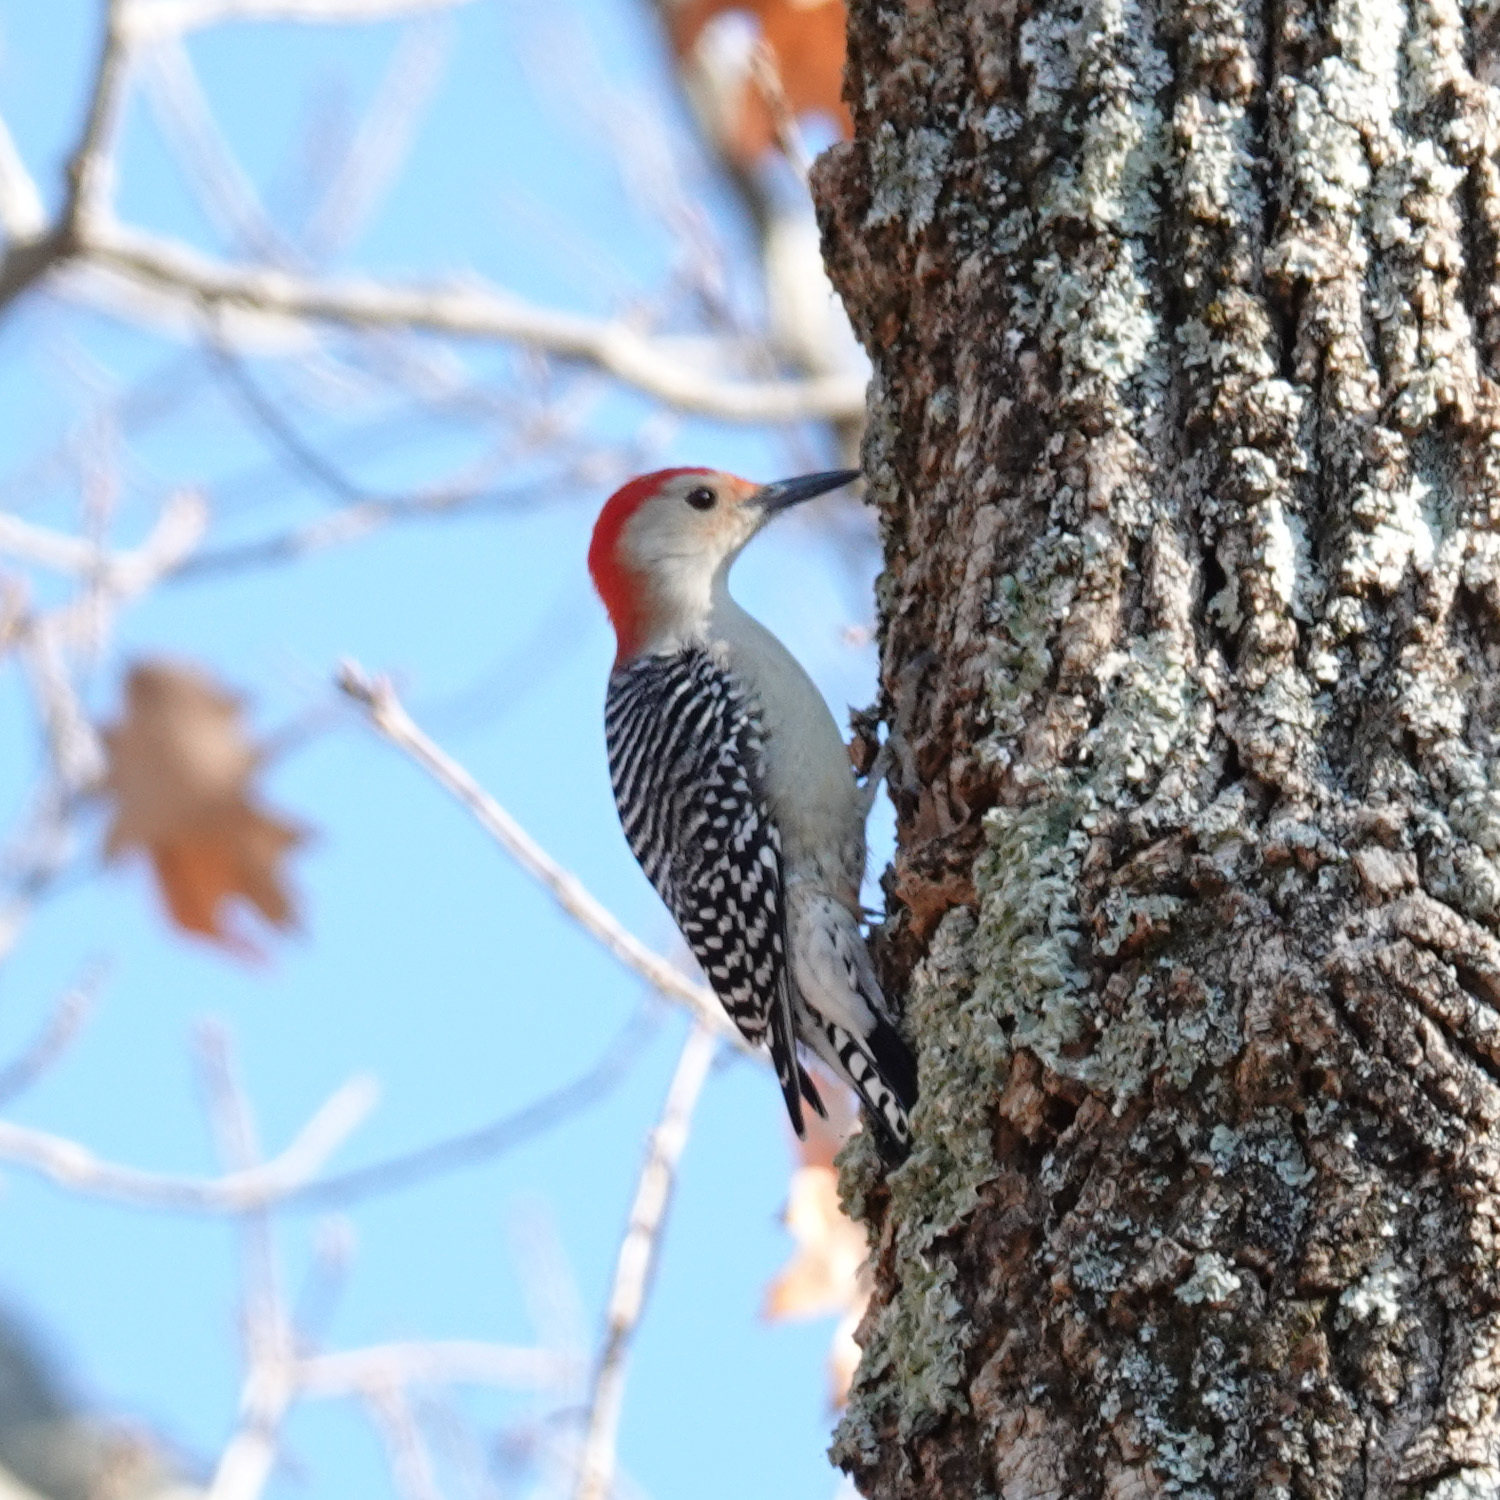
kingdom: Animalia
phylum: Chordata
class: Aves
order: Piciformes
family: Picidae
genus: Melanerpes
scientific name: Melanerpes carolinus
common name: Red-bellied woodpecker
